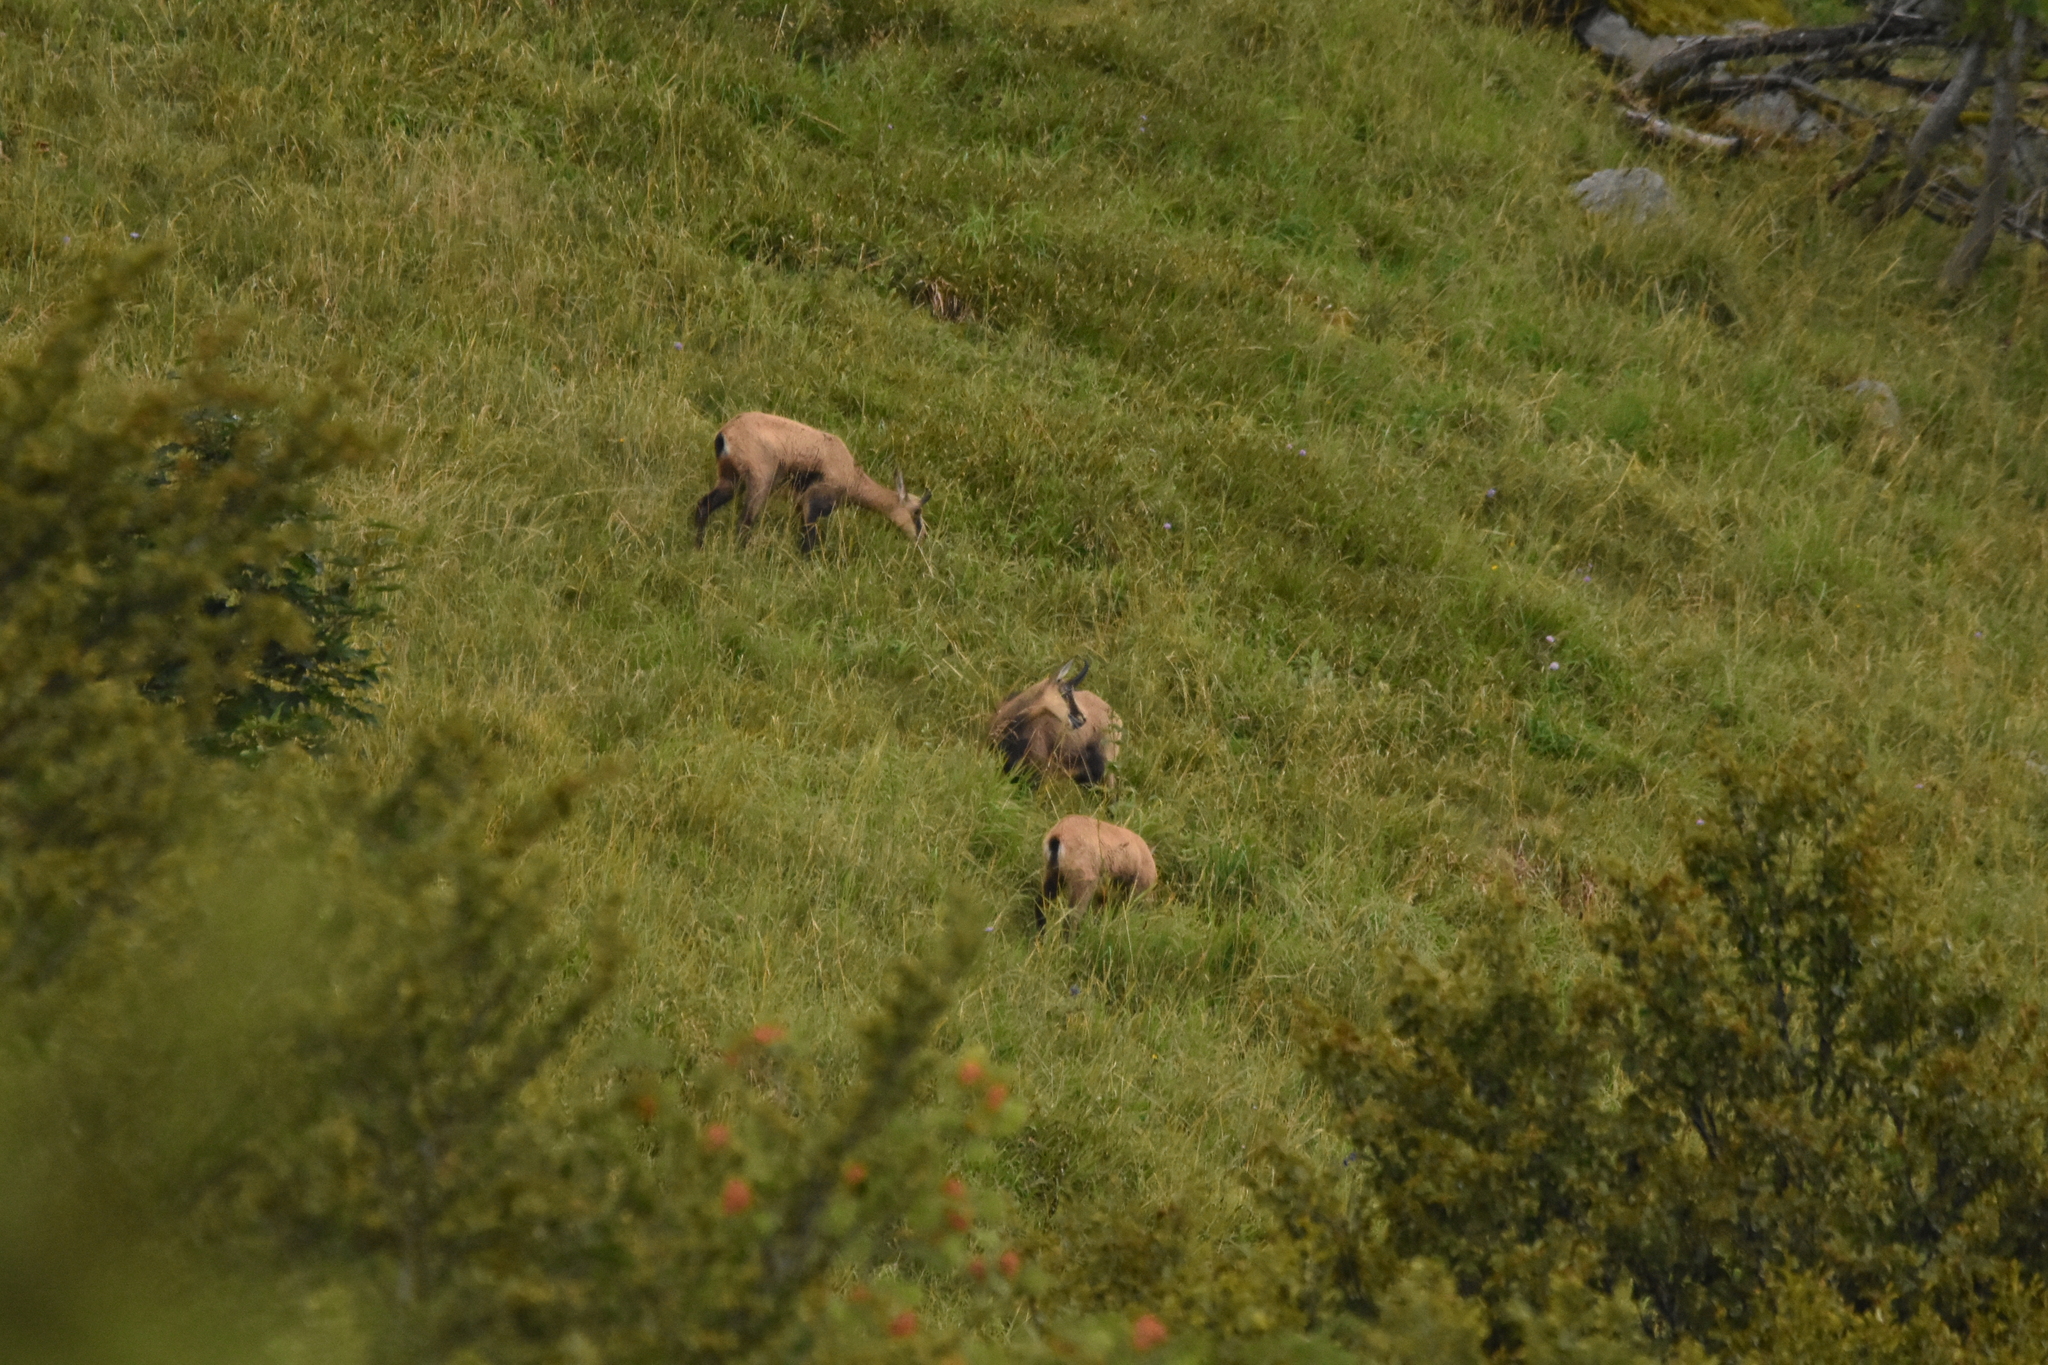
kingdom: Animalia
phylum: Chordata
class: Mammalia
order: Artiodactyla
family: Bovidae
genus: Rupicapra
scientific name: Rupicapra rupicapra
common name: Chamois
